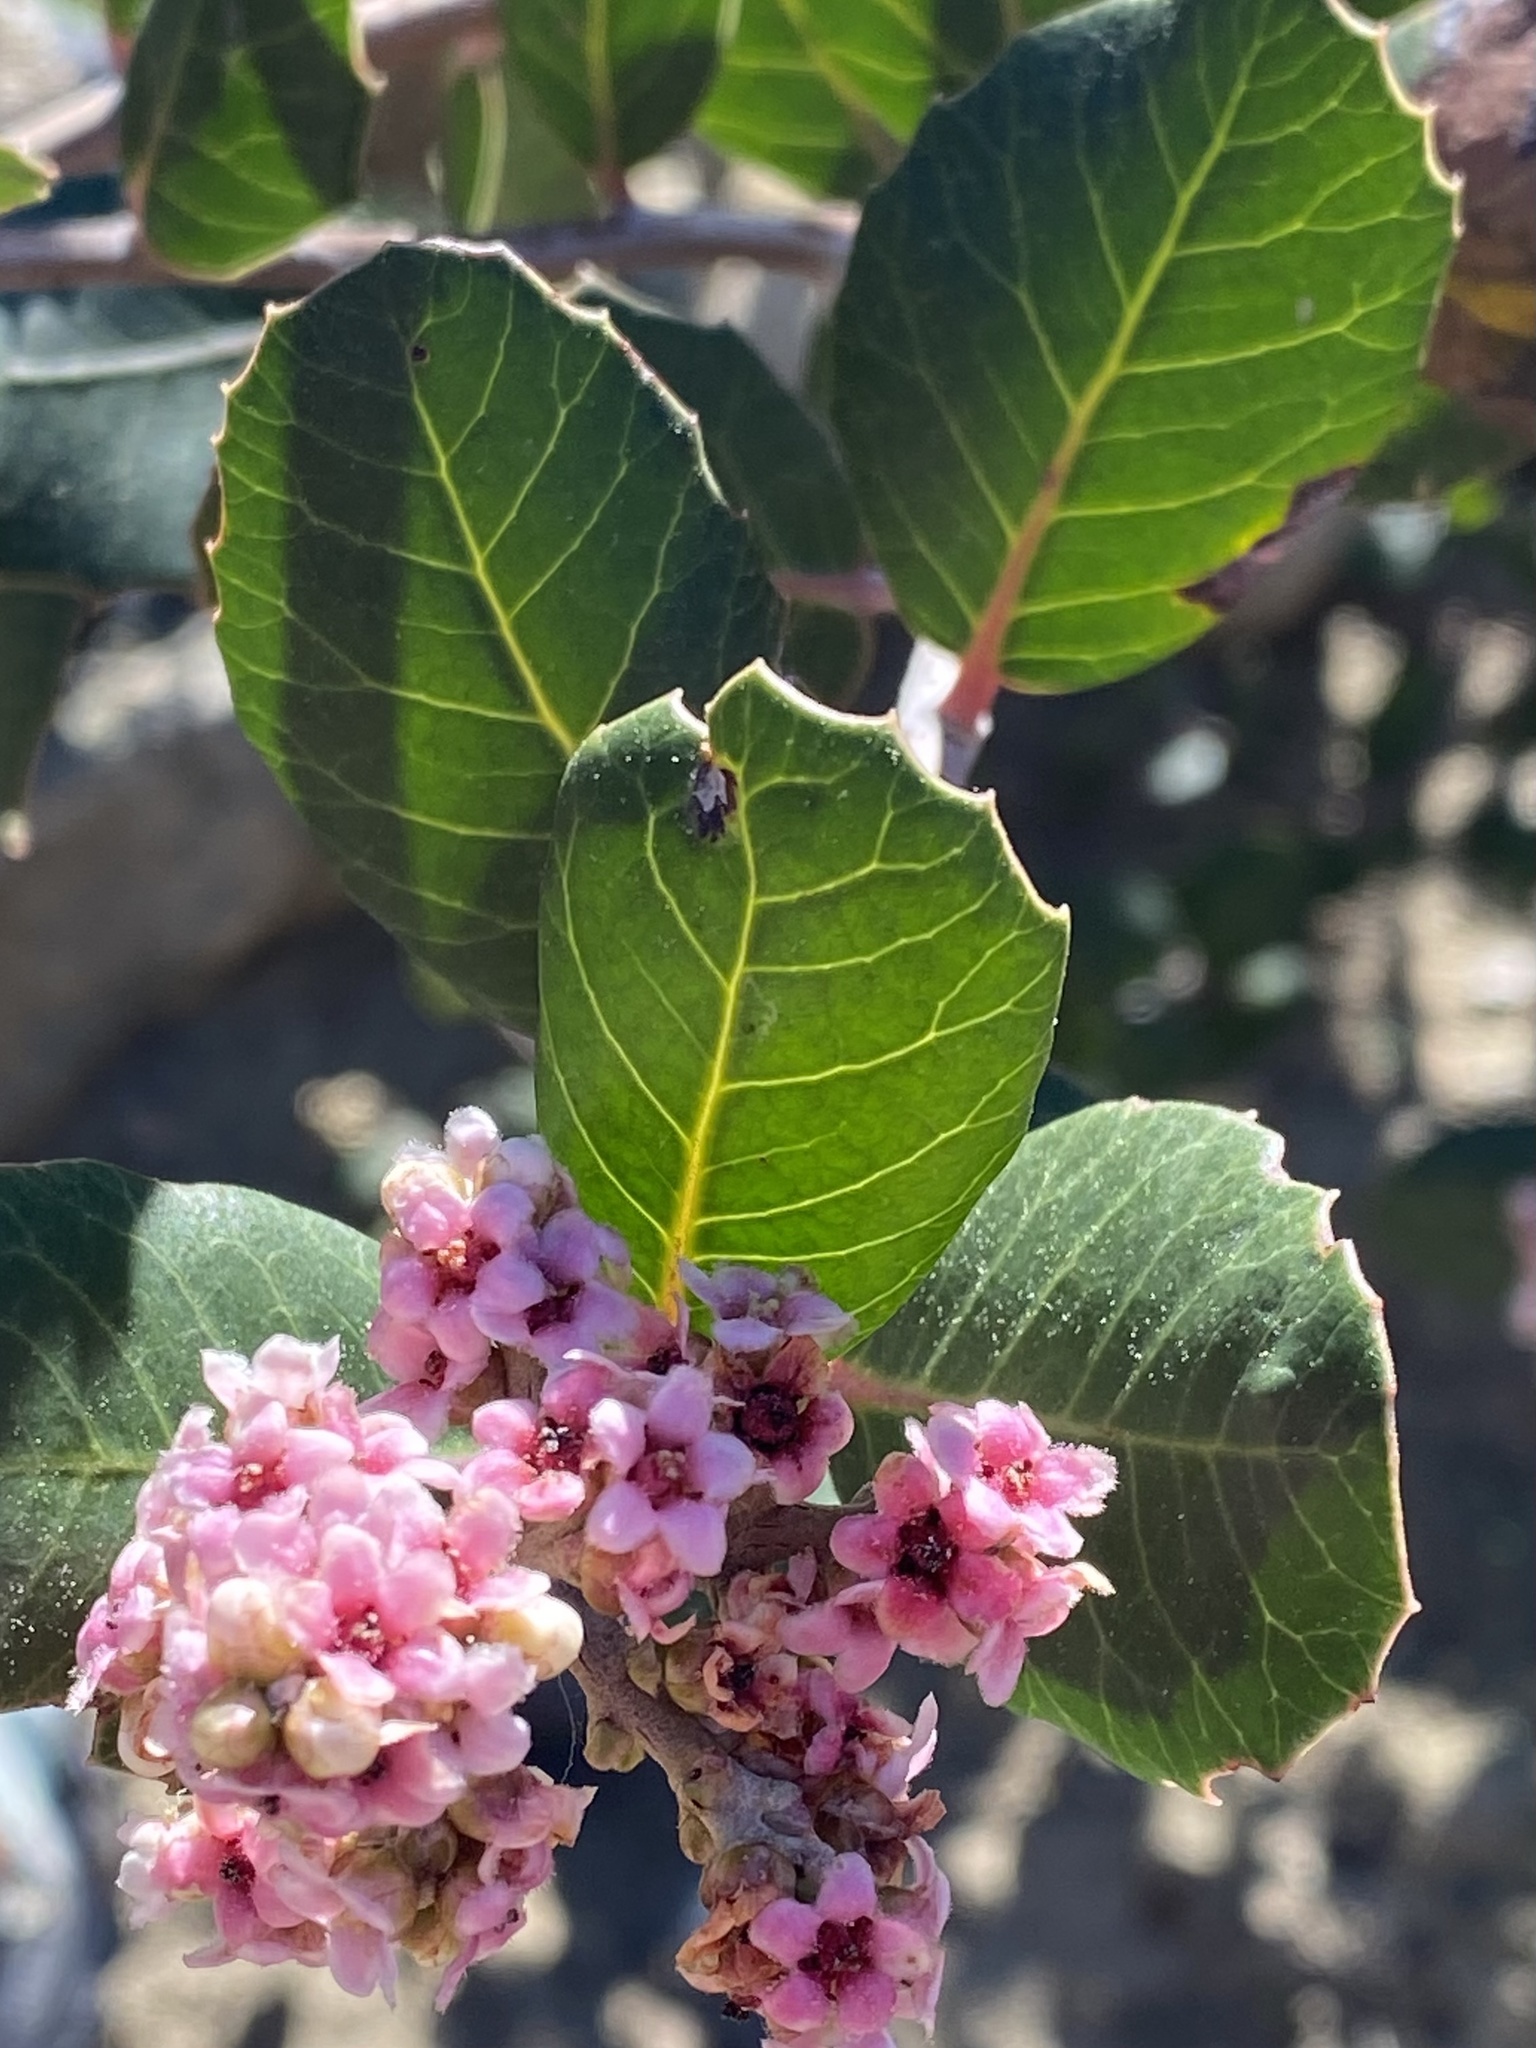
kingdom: Plantae
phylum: Tracheophyta
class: Magnoliopsida
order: Sapindales
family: Anacardiaceae
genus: Rhus
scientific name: Rhus integrifolia
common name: Lemonade sumac
